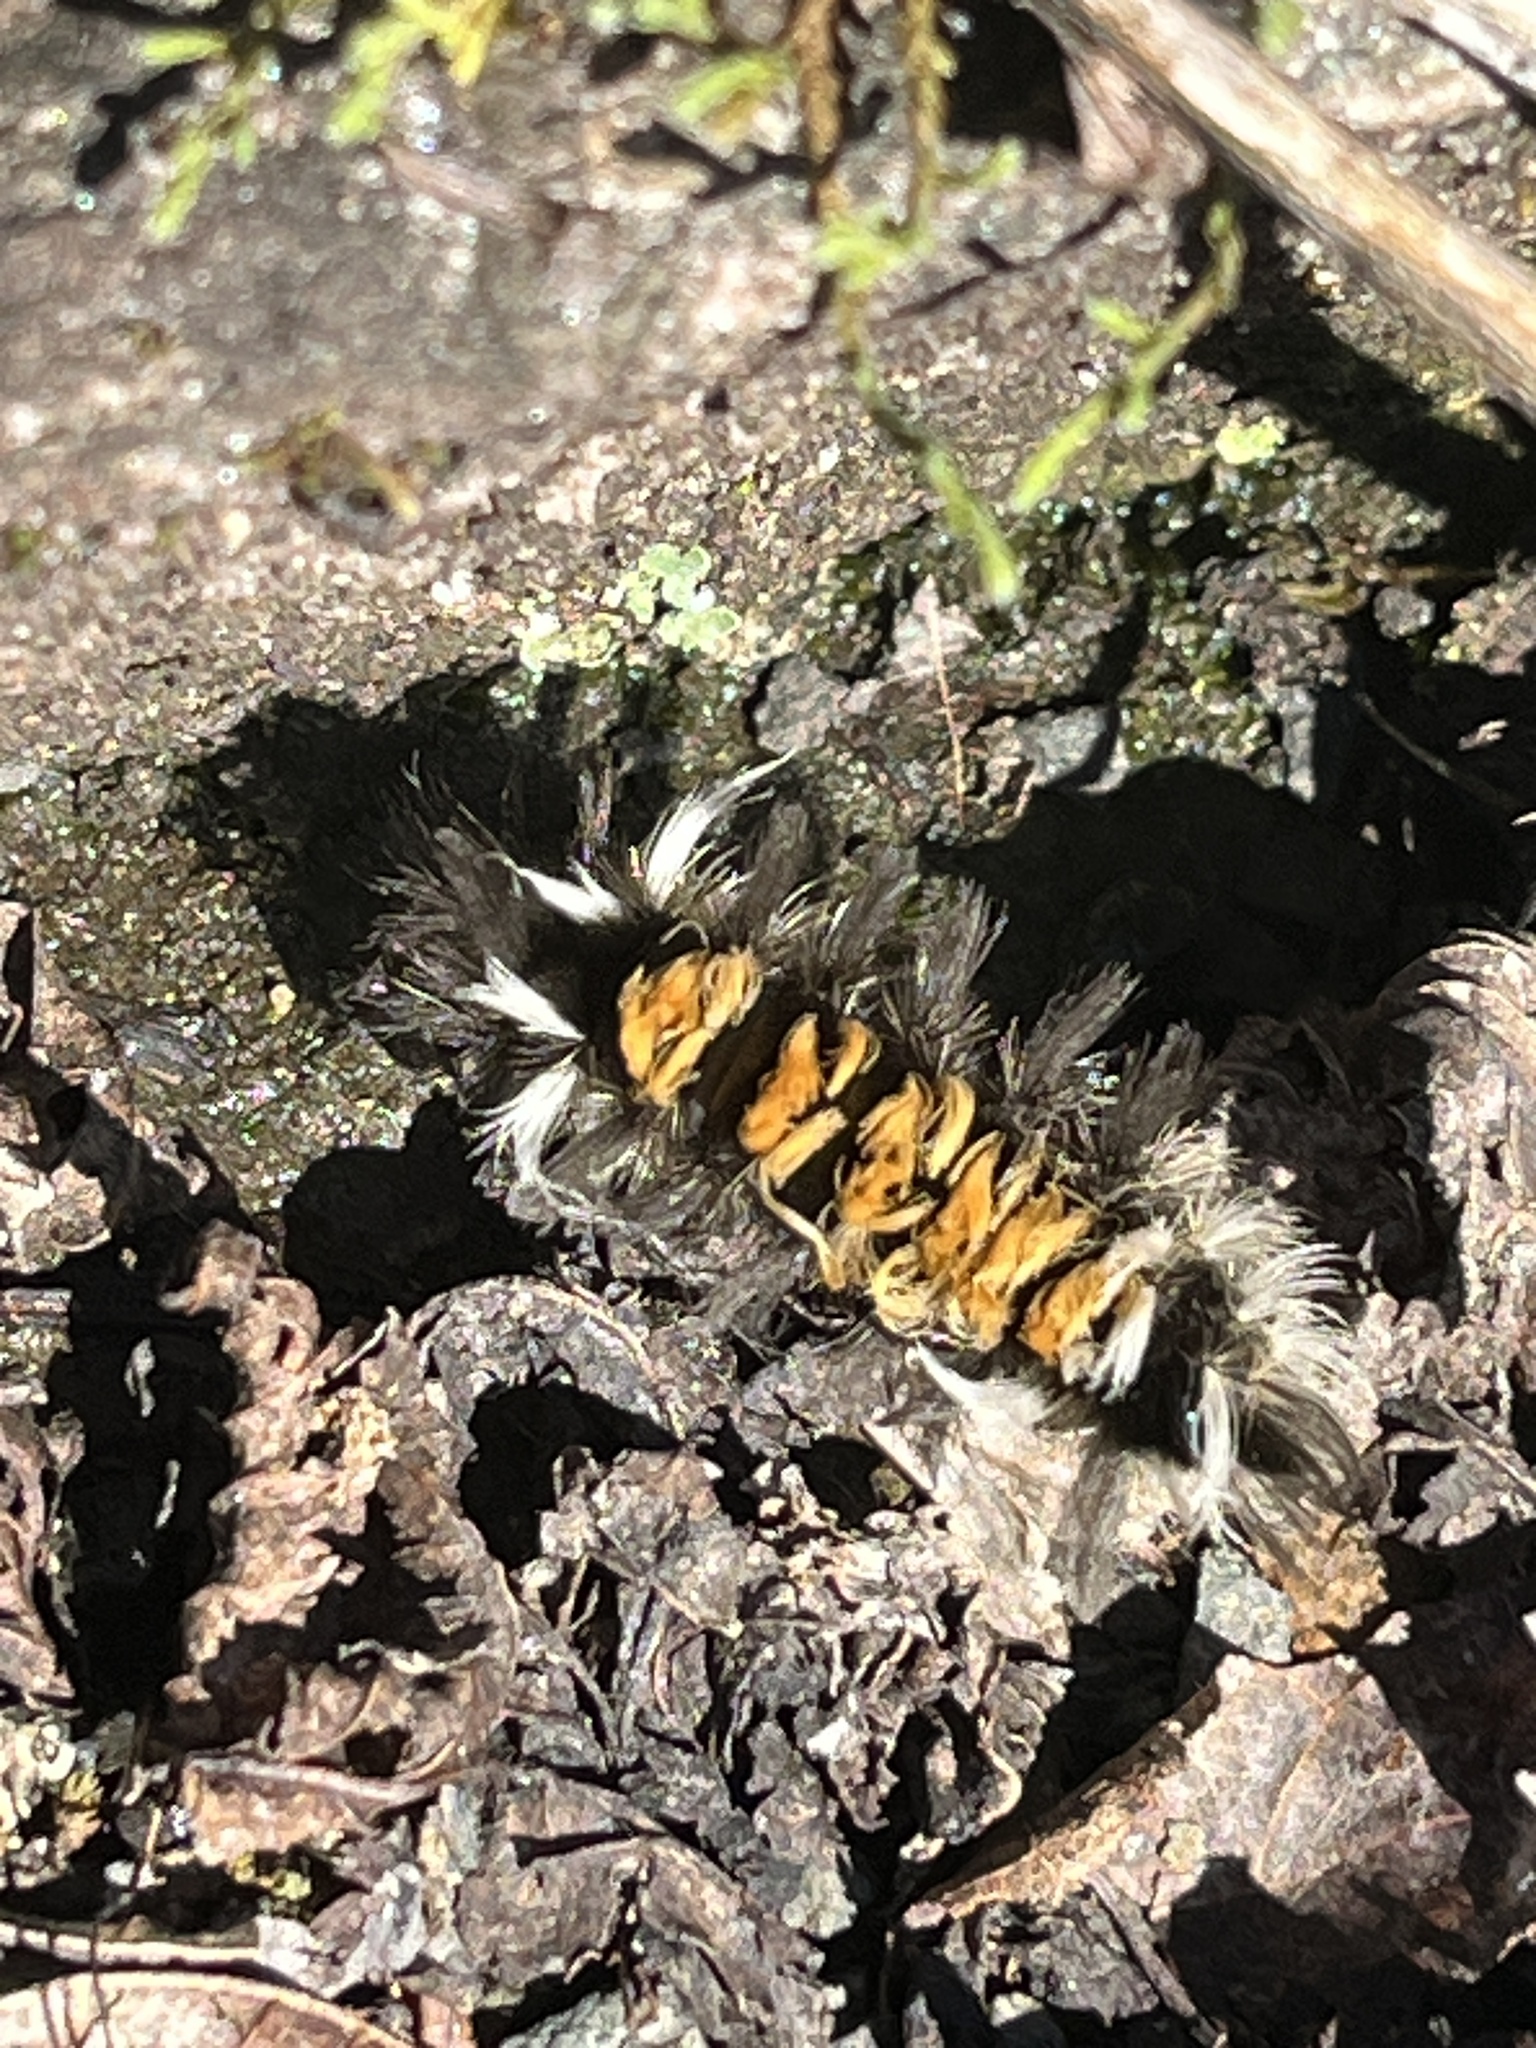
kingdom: Animalia
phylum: Arthropoda
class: Insecta
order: Lepidoptera
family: Erebidae
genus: Euchaetes
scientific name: Euchaetes egle
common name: Milkweed tussock moth
